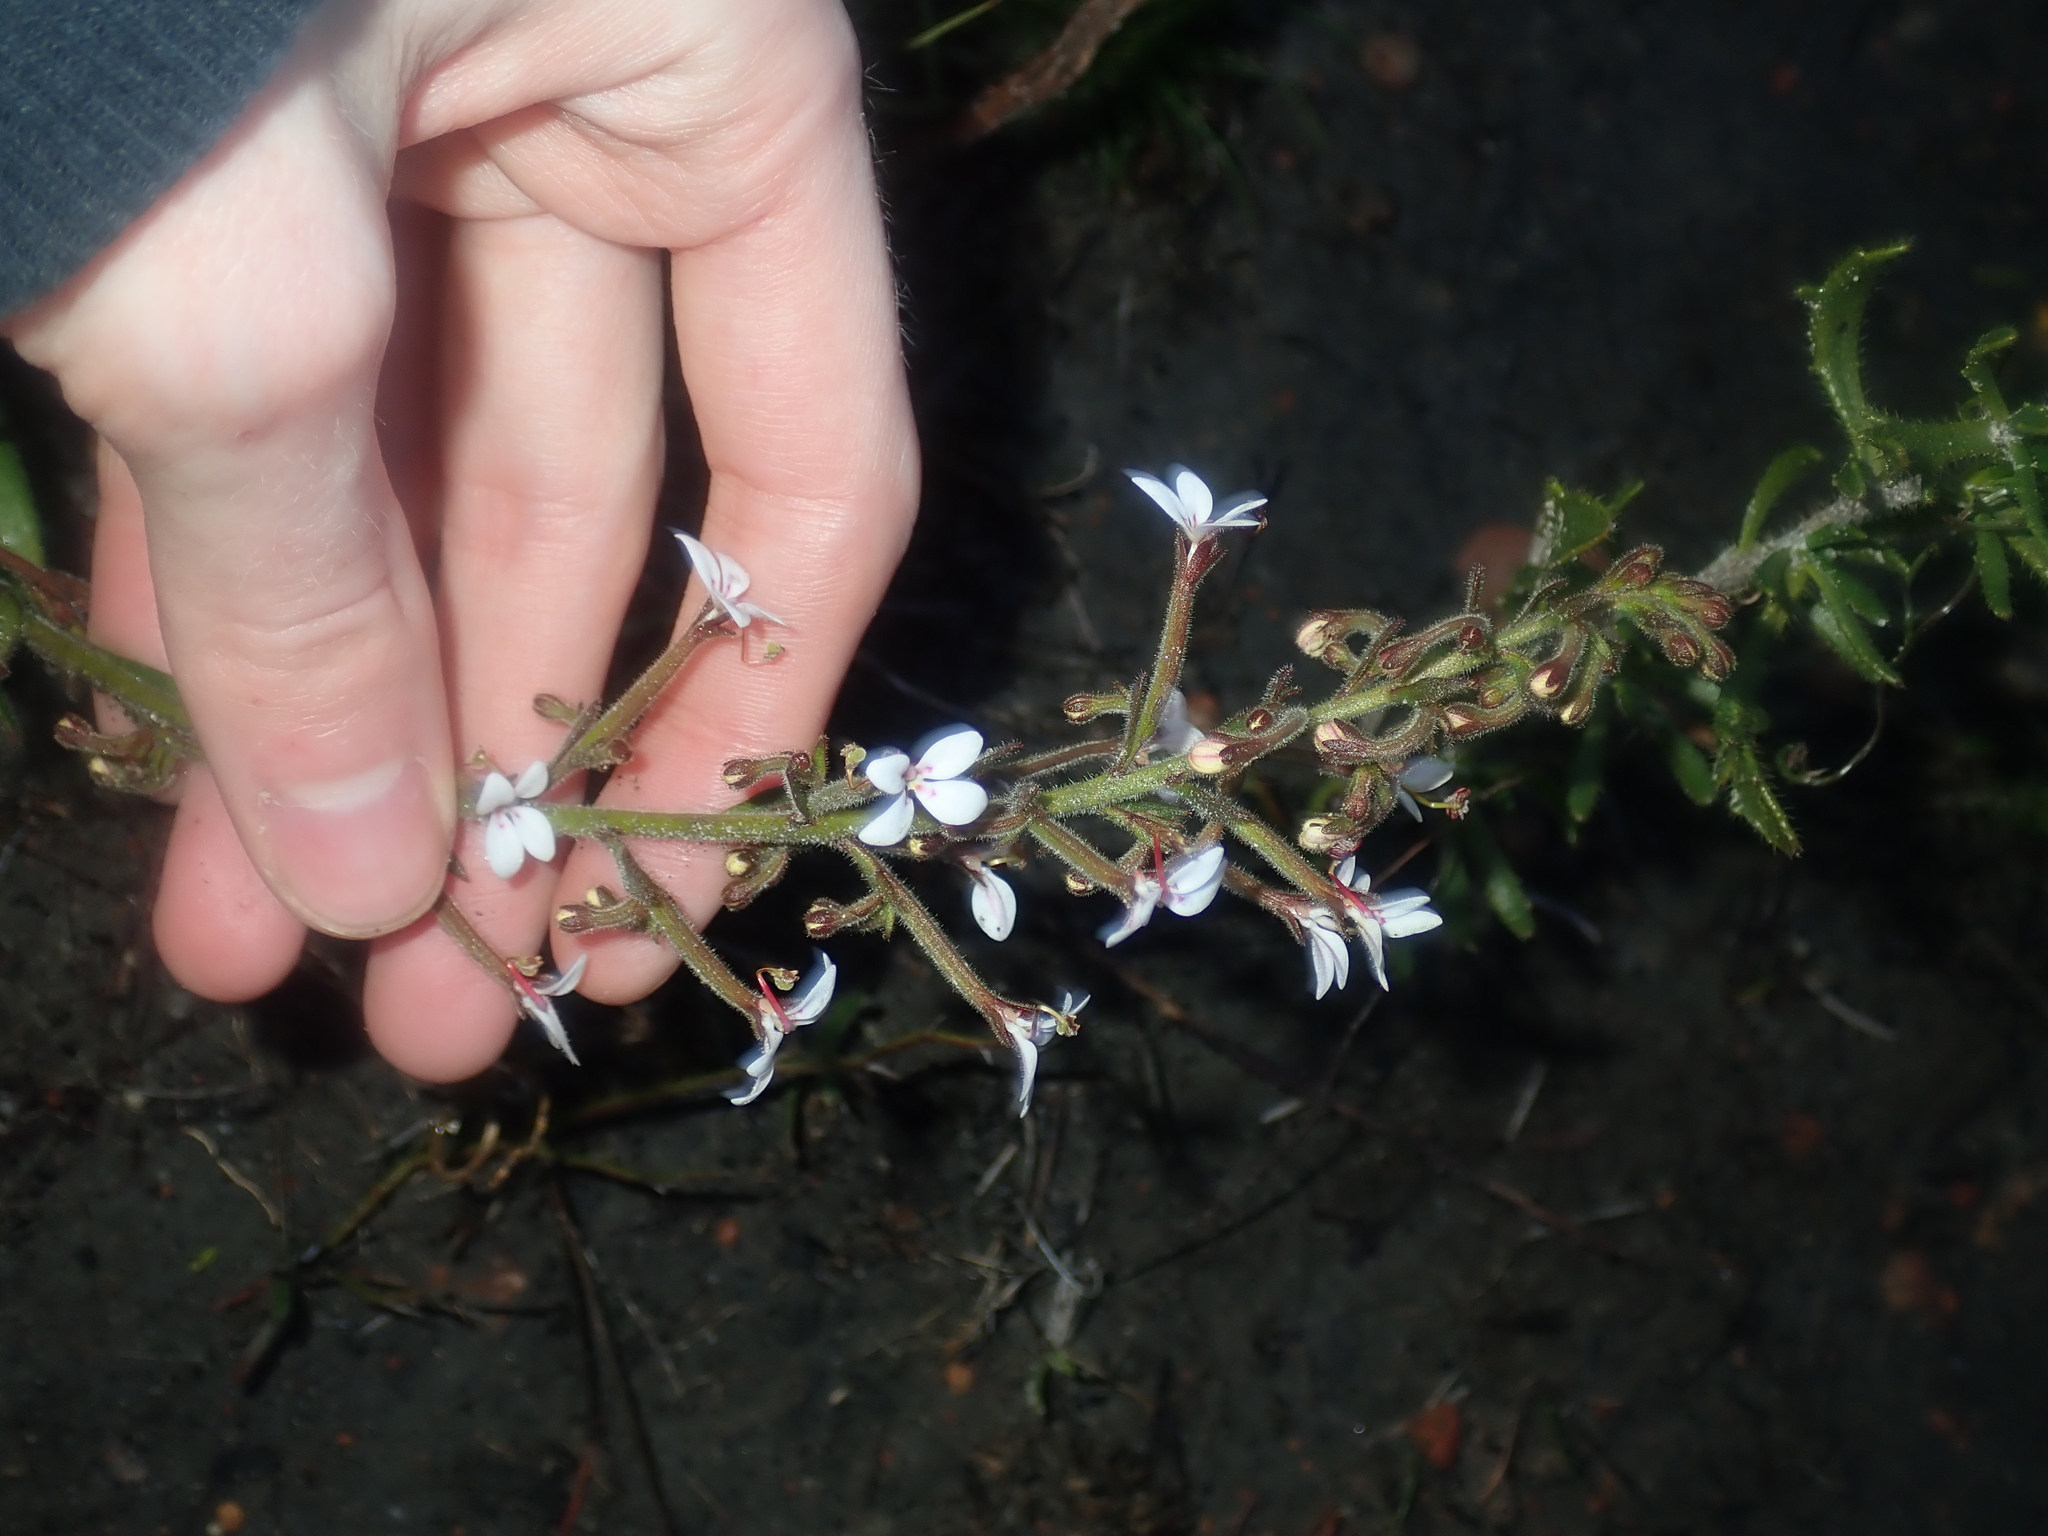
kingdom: Plantae
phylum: Tracheophyta
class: Magnoliopsida
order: Asterales
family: Stylidiaceae
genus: Stylidium
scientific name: Stylidium pycnostachyum
